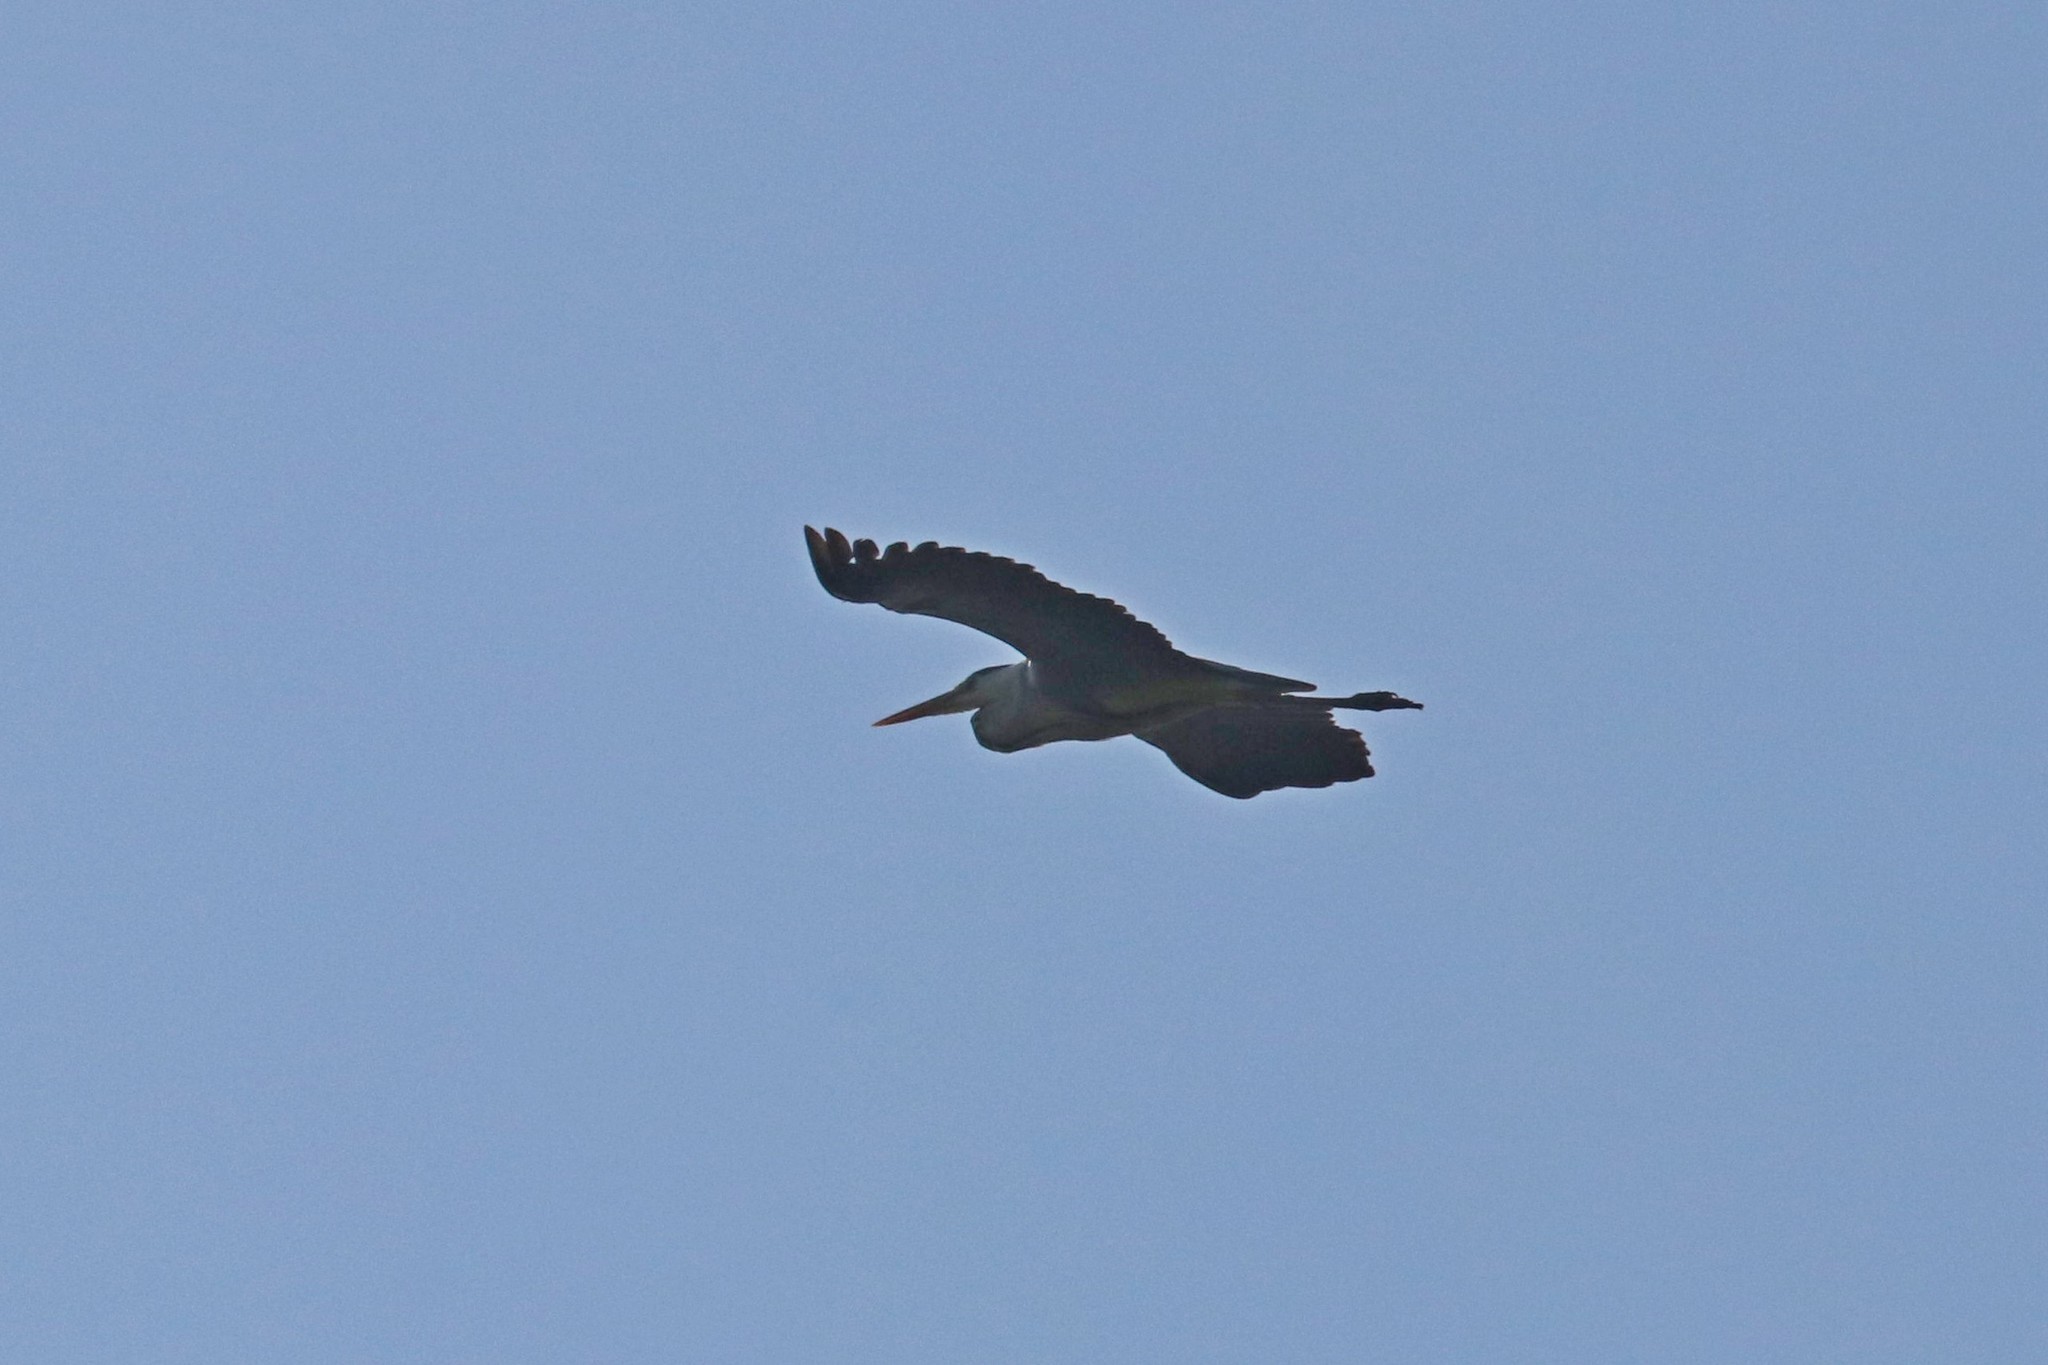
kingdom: Animalia
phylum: Chordata
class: Aves
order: Pelecaniformes
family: Ardeidae
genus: Ardea
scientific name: Ardea cinerea
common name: Grey heron
